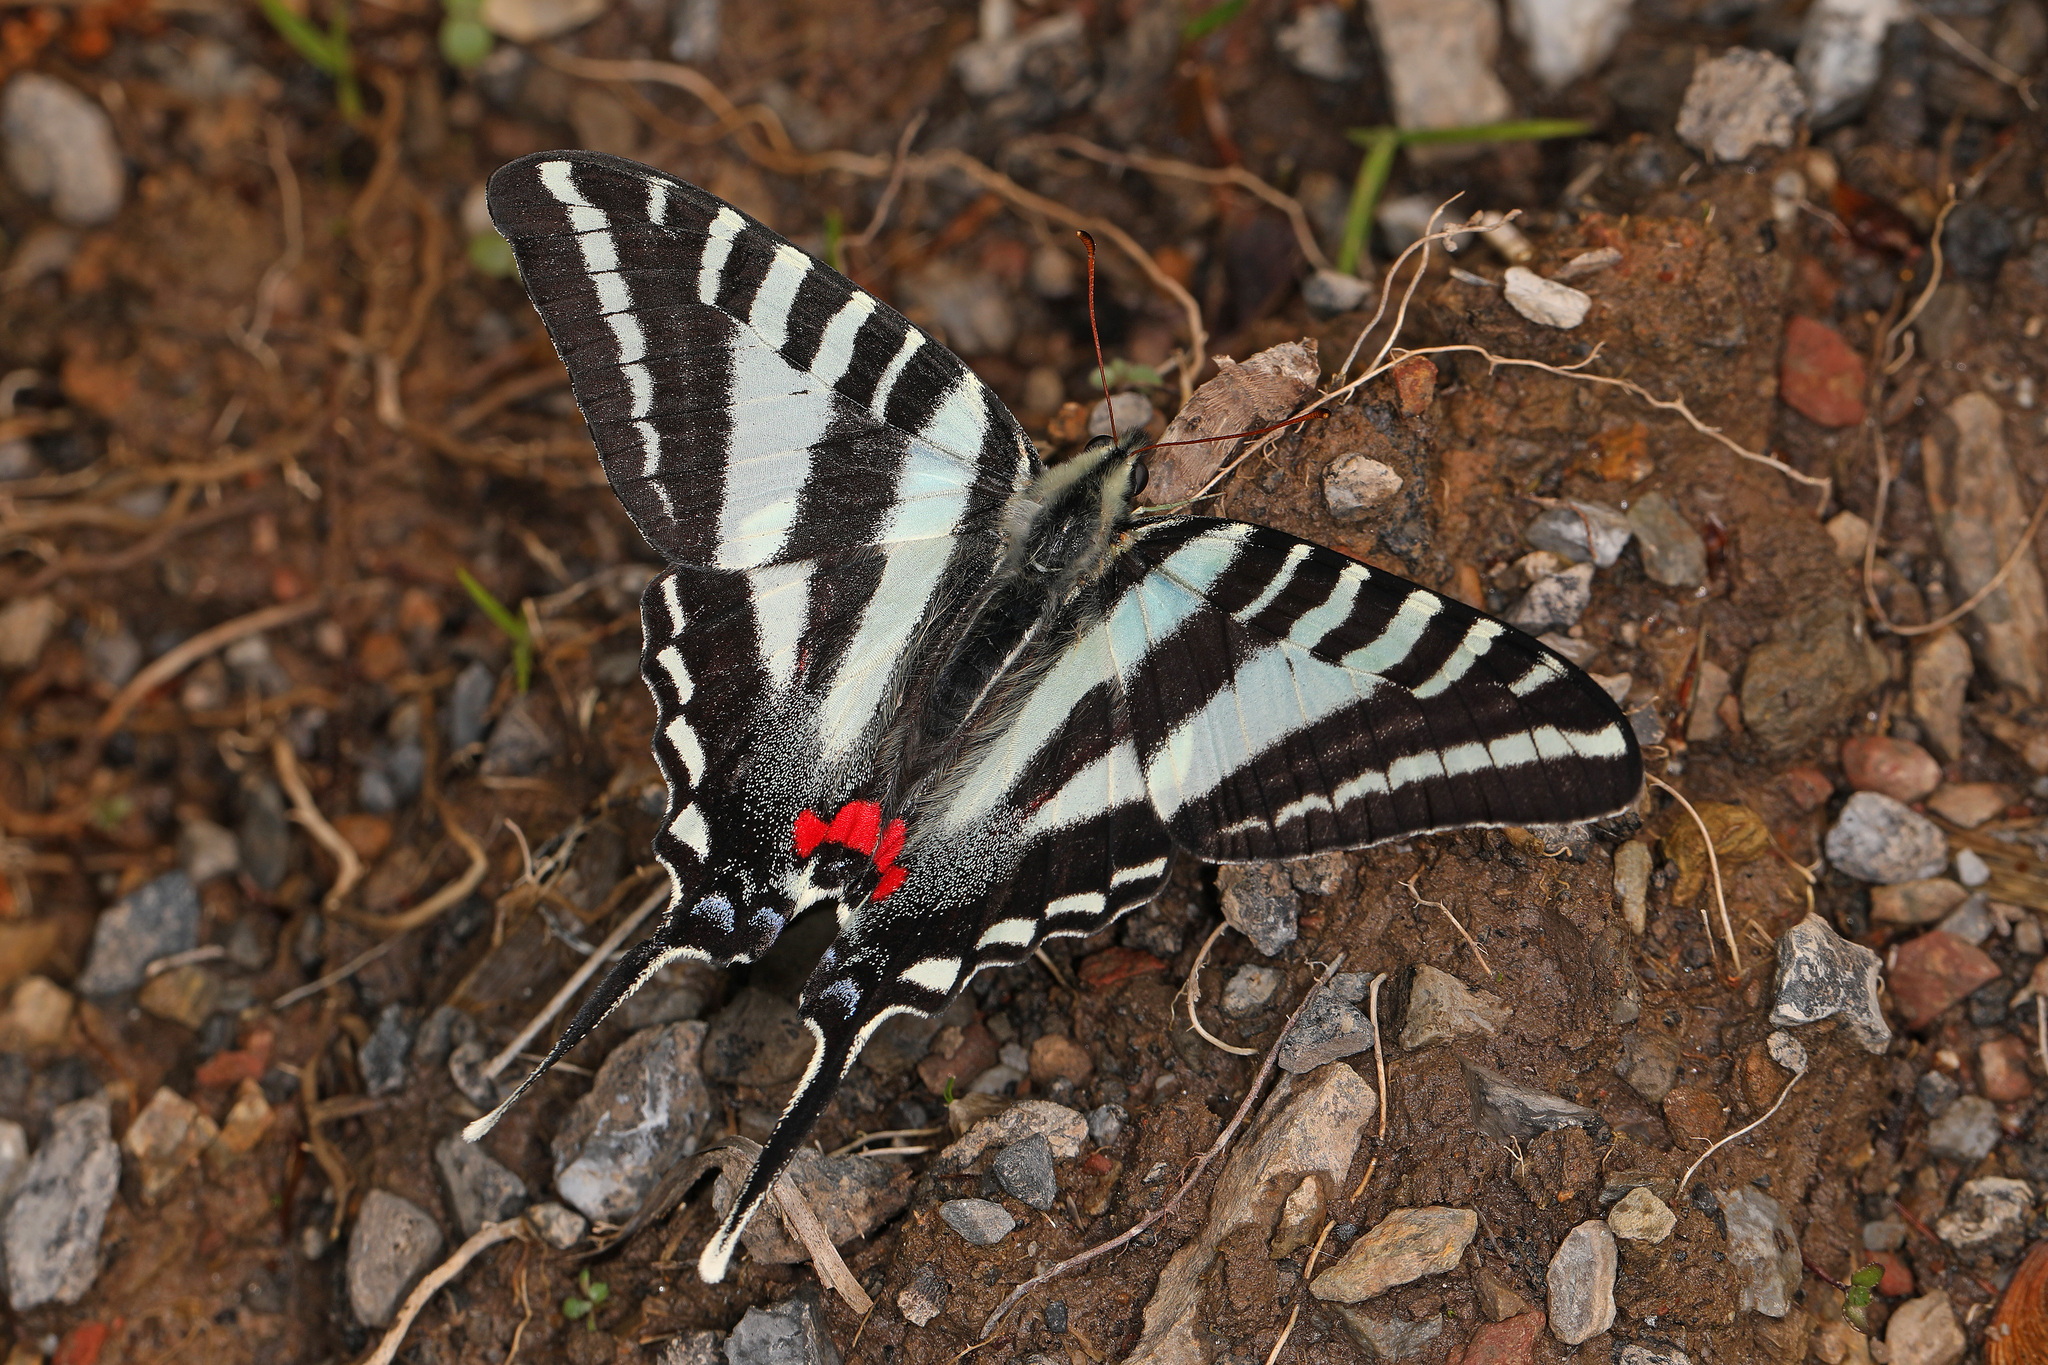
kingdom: Animalia
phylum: Arthropoda
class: Insecta
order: Lepidoptera
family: Papilionidae
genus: Protographium
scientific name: Protographium marcellus
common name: Zebra swallowtail
